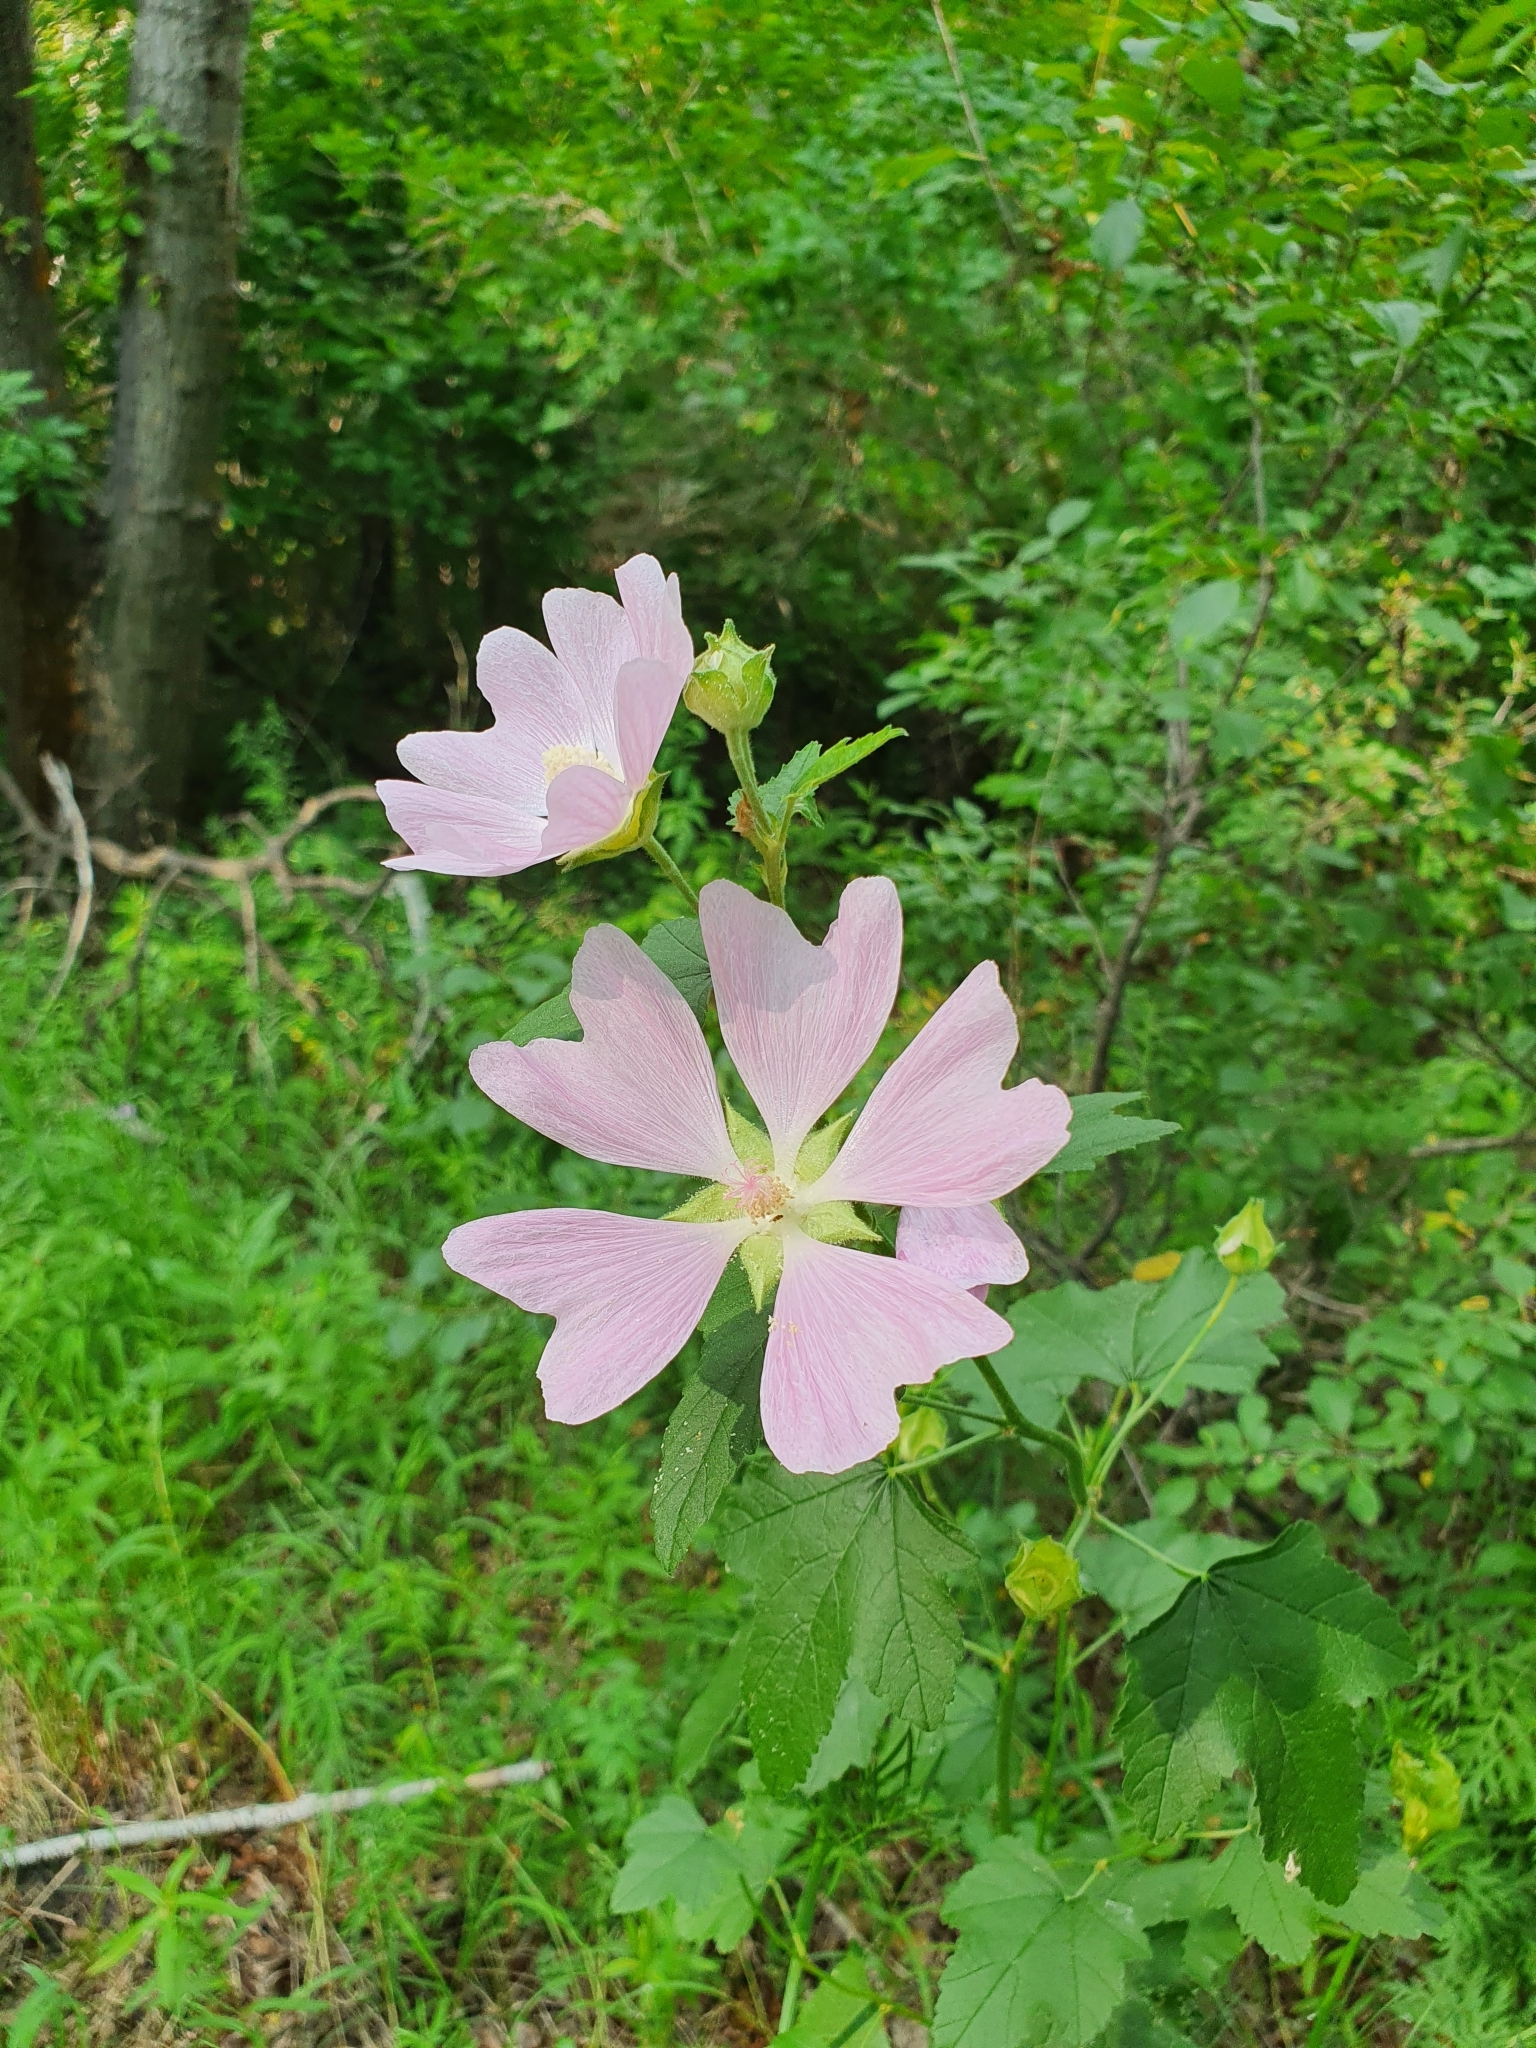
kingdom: Plantae
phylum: Tracheophyta
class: Magnoliopsida
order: Malvales
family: Malvaceae
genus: Malva
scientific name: Malva thuringiaca
